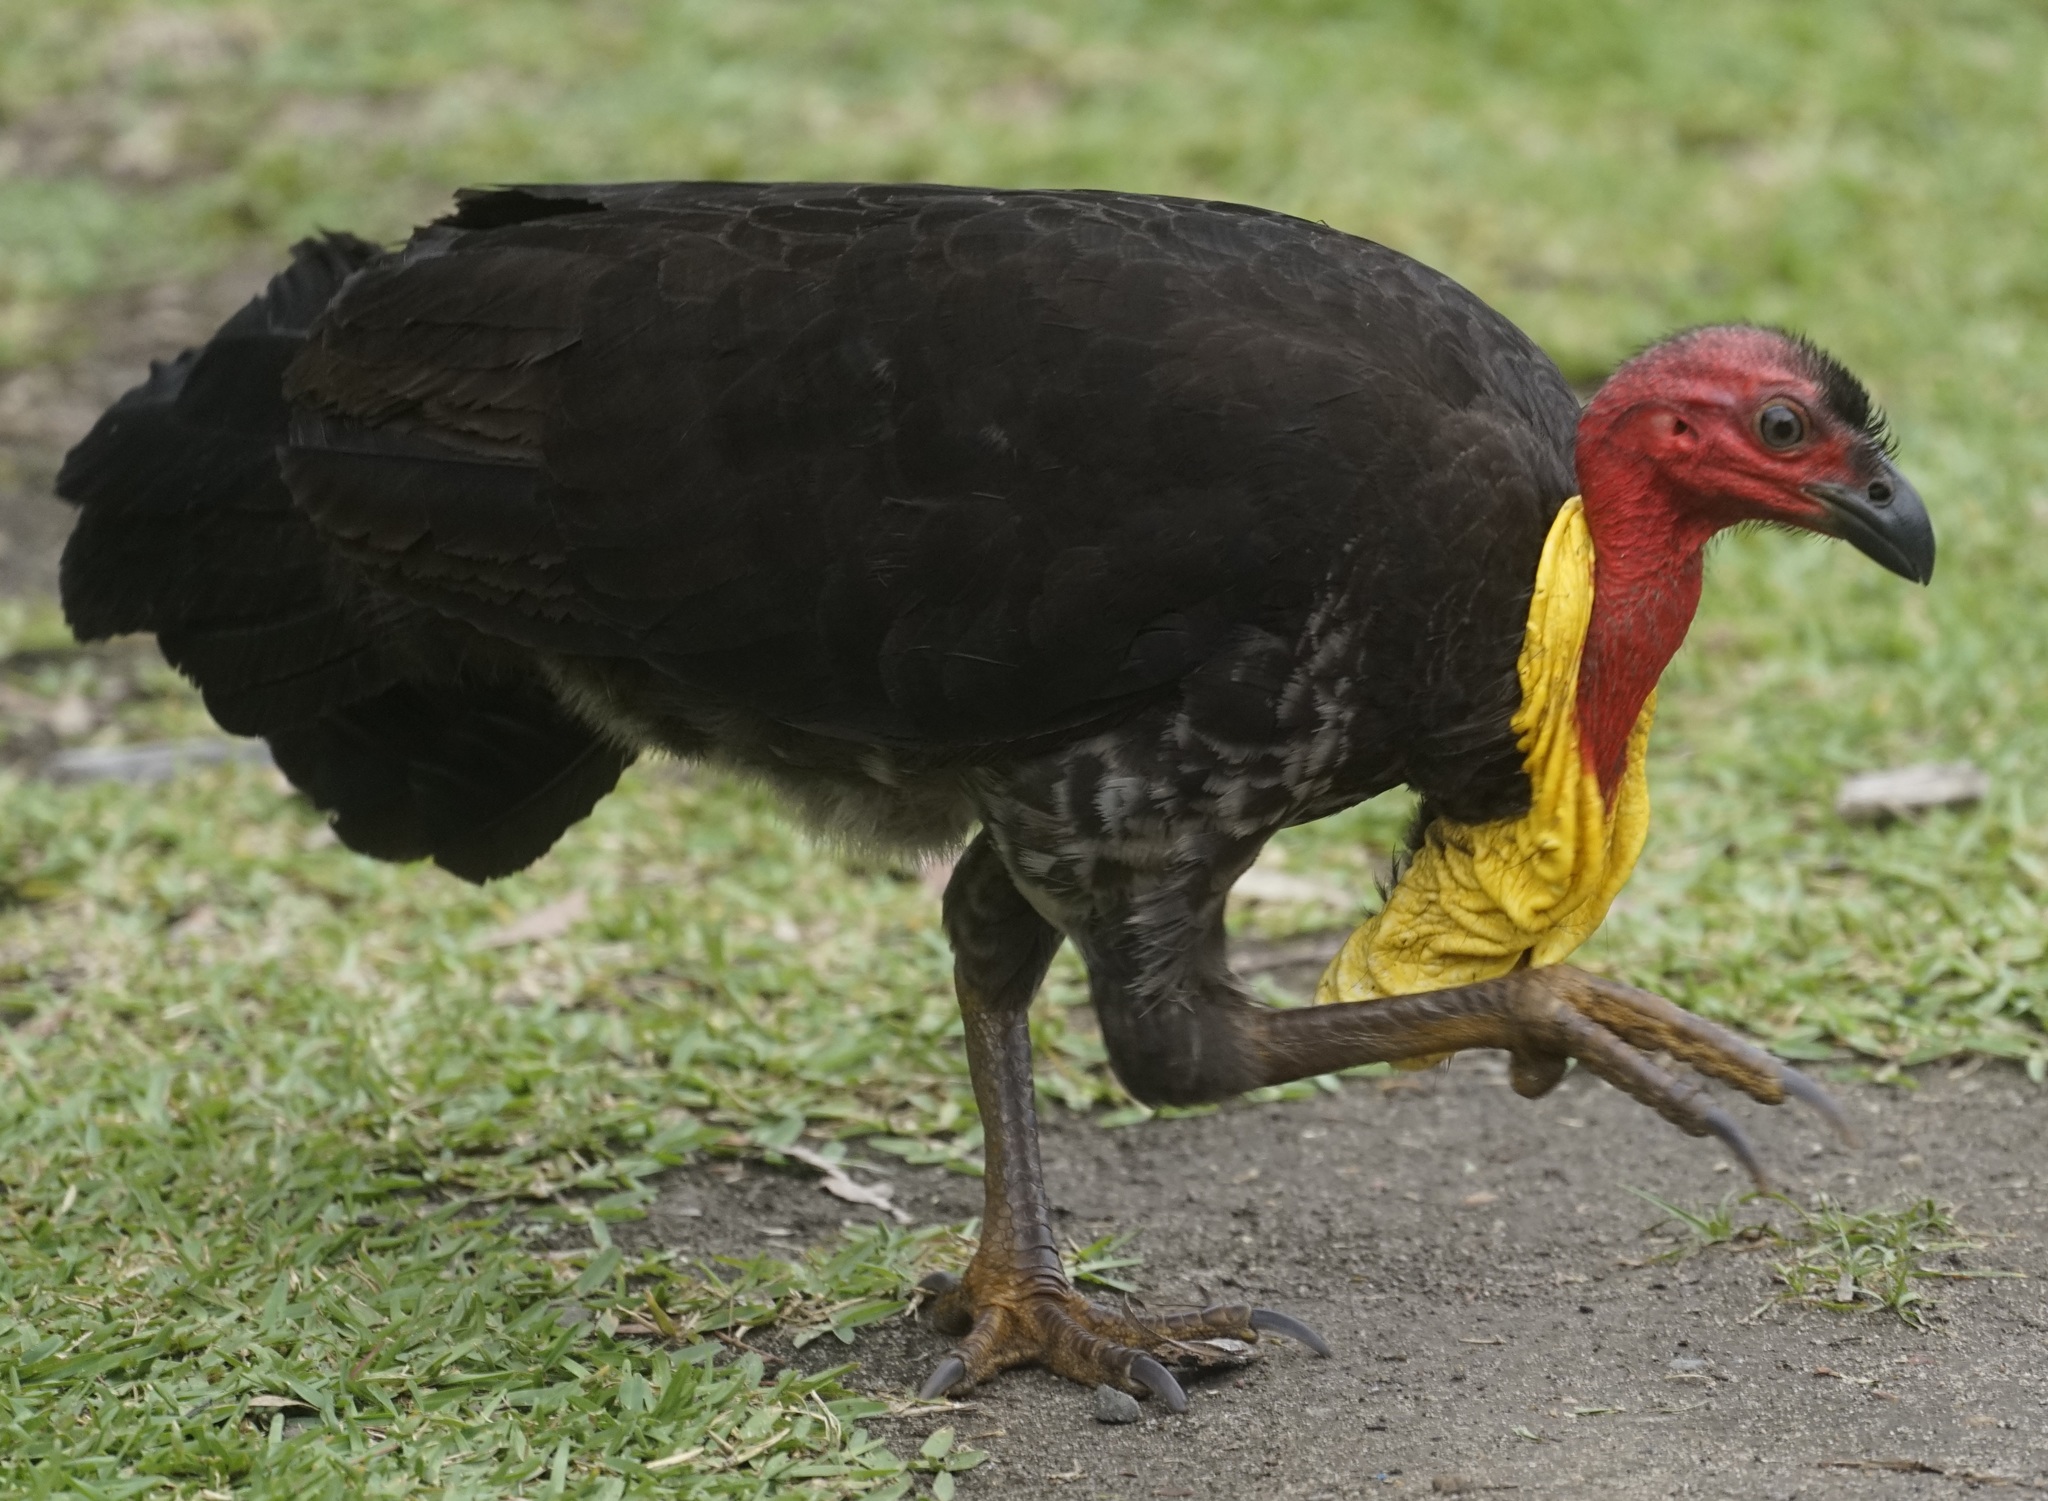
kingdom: Animalia
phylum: Chordata
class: Aves
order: Galliformes
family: Megapodiidae
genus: Alectura
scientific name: Alectura lathami
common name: Australian brushturkey
